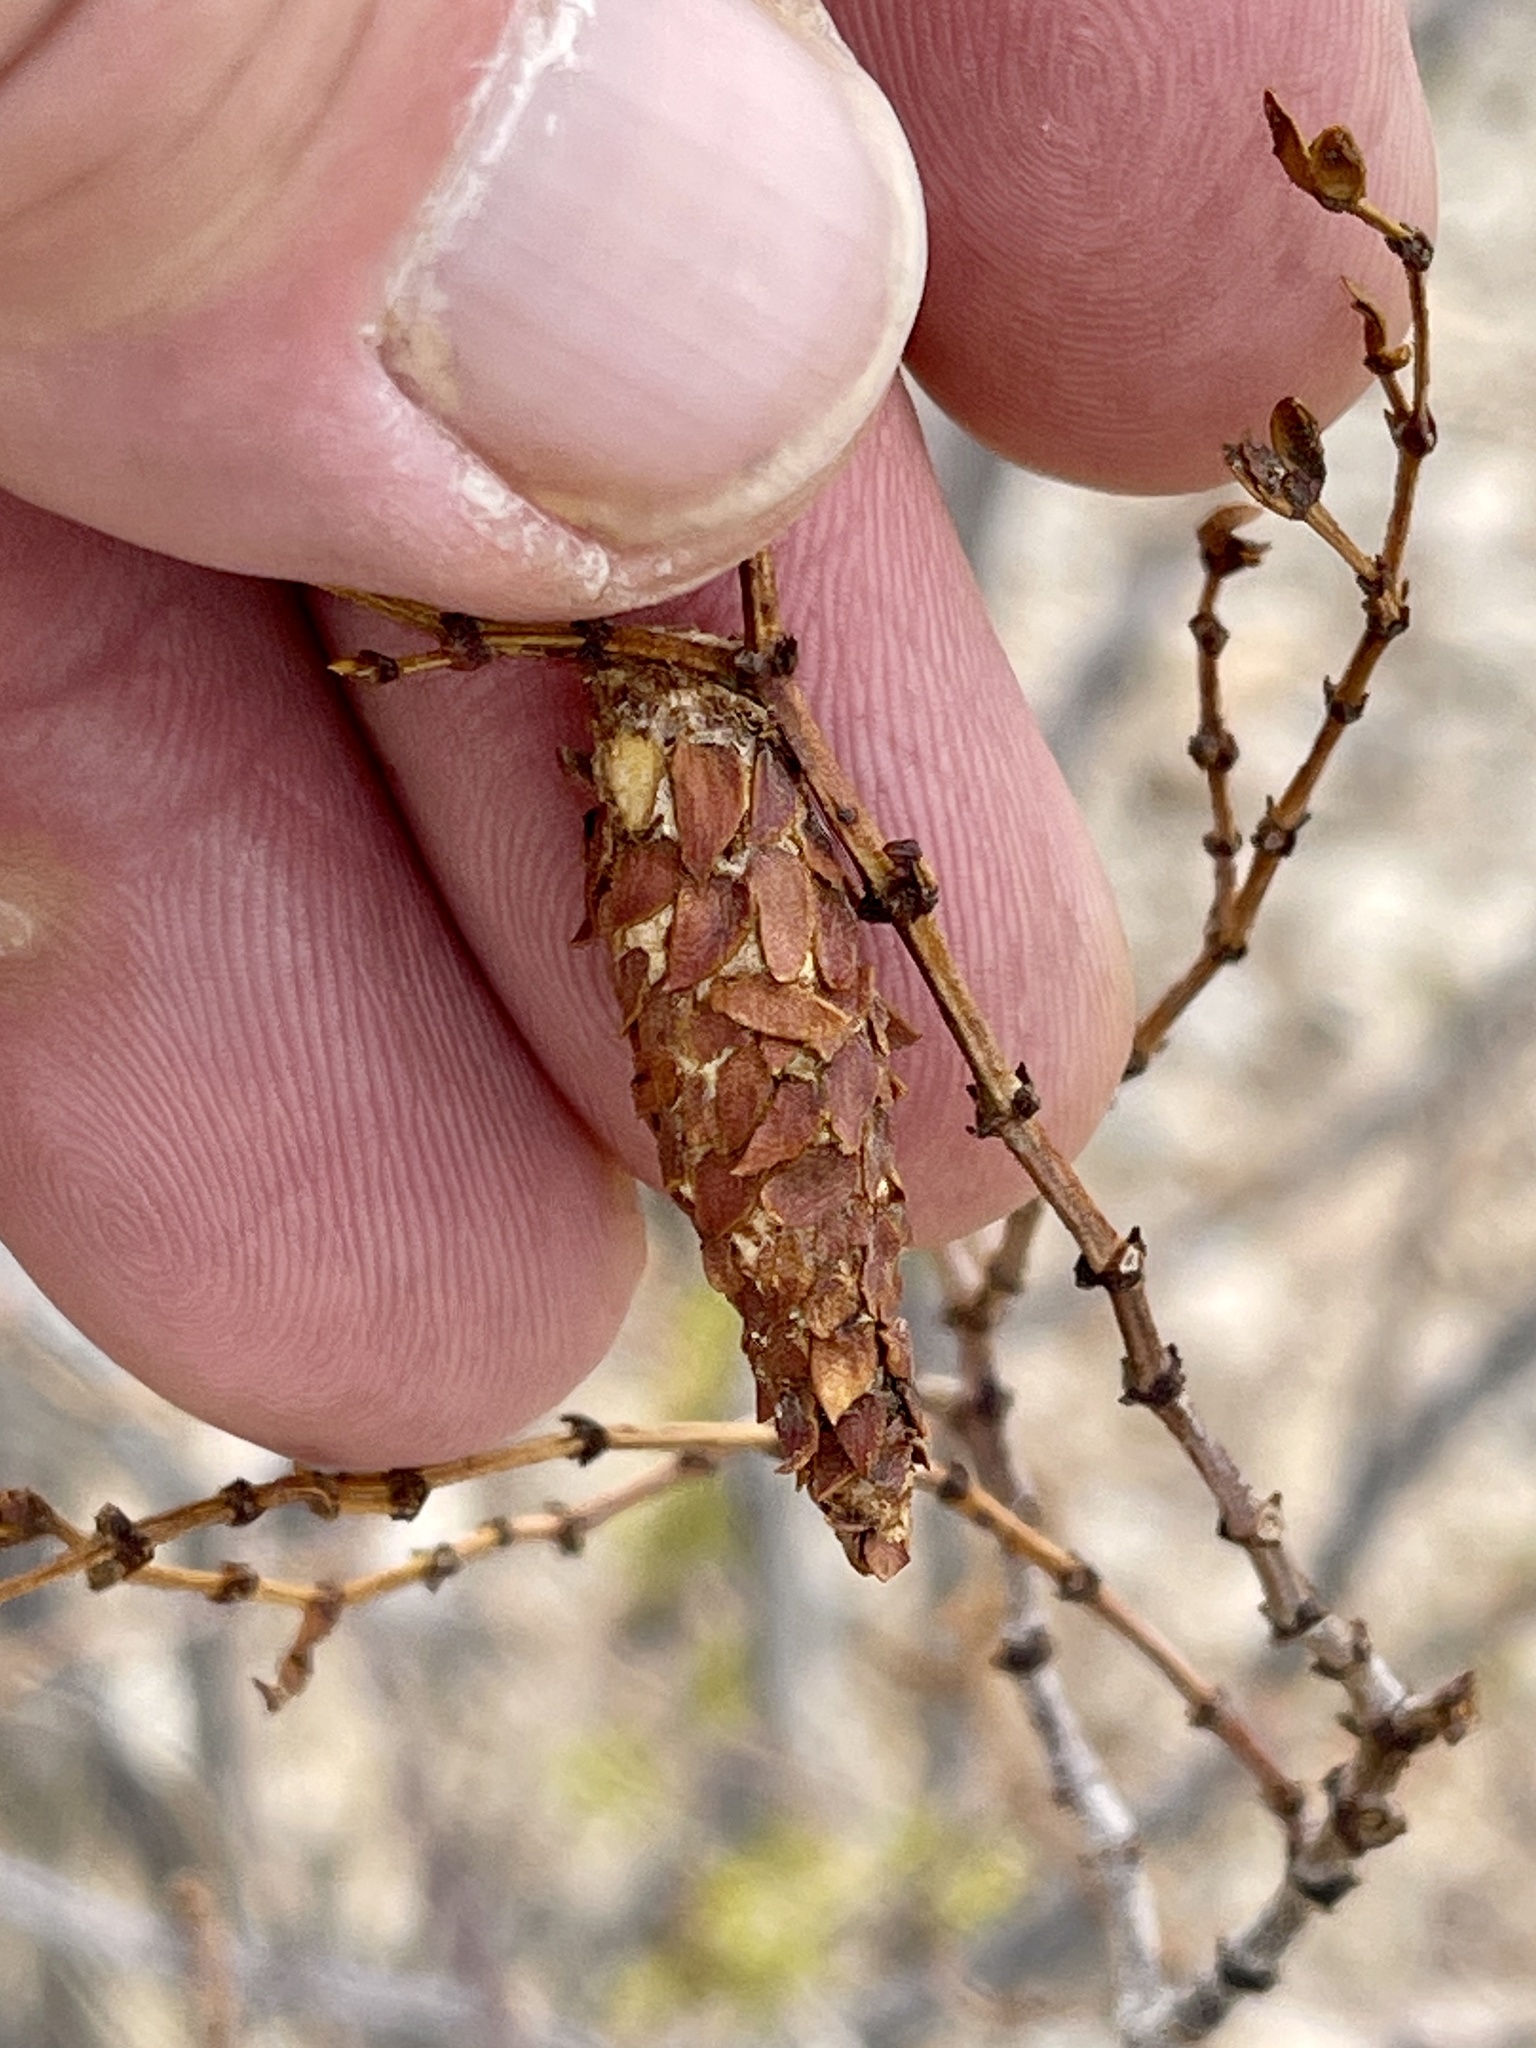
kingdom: Animalia
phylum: Arthropoda
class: Insecta
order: Lepidoptera
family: Psychidae
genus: Thyridopteryx
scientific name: Thyridopteryx meadii
